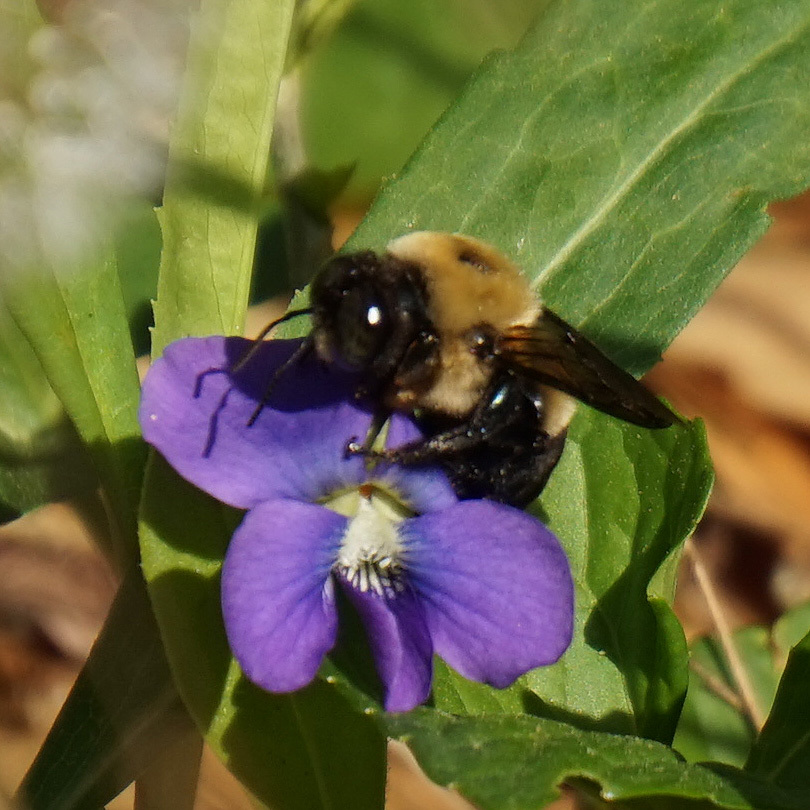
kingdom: Animalia
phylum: Arthropoda
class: Insecta
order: Hymenoptera
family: Apidae
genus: Xylocopa
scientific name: Xylocopa virginica
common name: Carpenter bee
